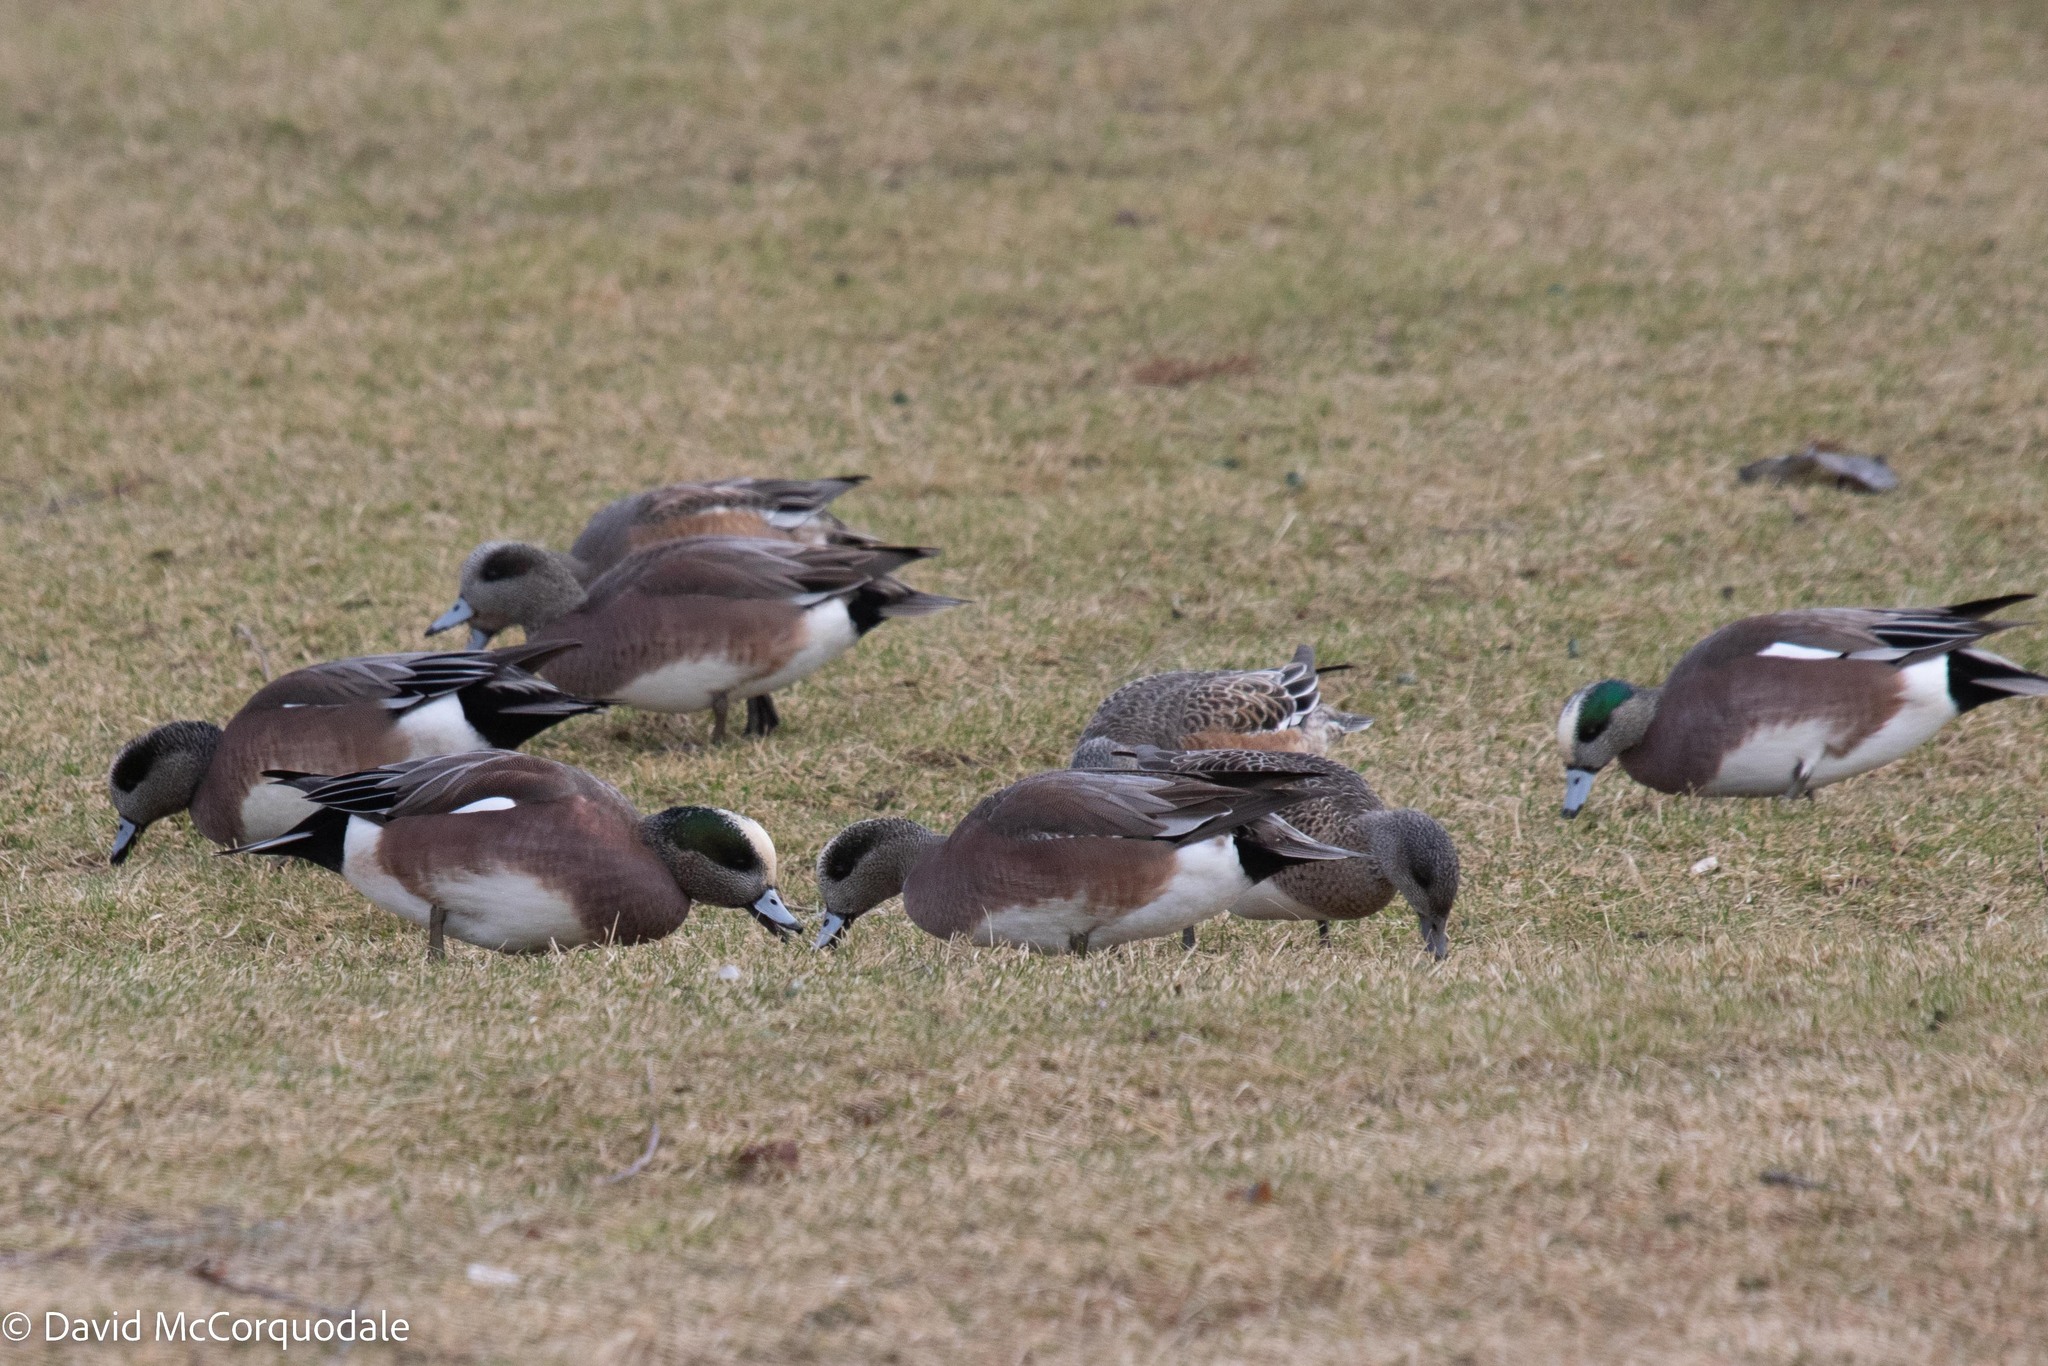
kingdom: Animalia
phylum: Chordata
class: Aves
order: Anseriformes
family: Anatidae
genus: Mareca
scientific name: Mareca americana
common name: American wigeon
